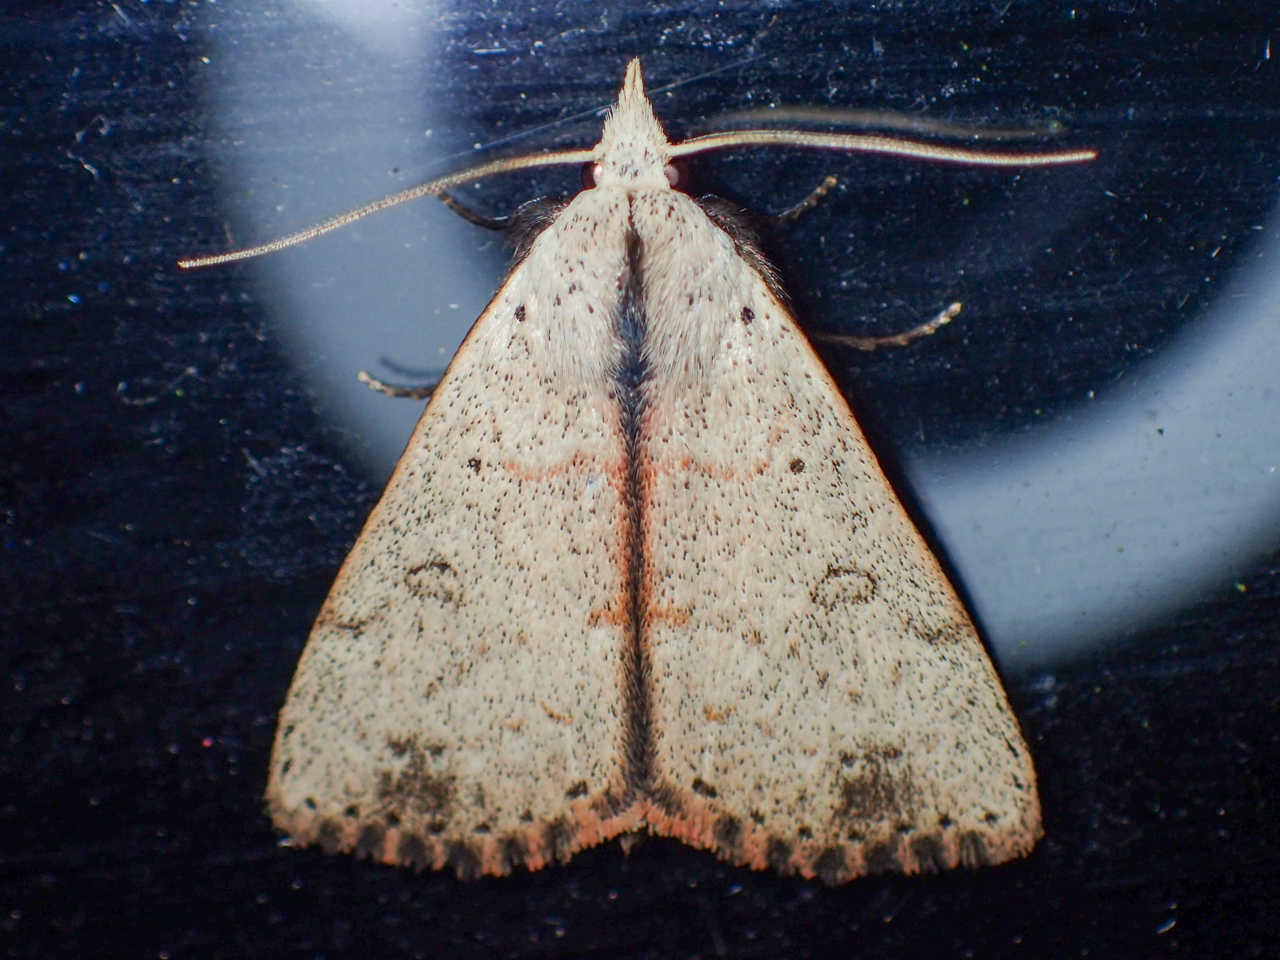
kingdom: Animalia
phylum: Arthropoda
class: Insecta
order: Lepidoptera
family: Erebidae
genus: Scolecocampa
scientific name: Scolecocampa liburna
